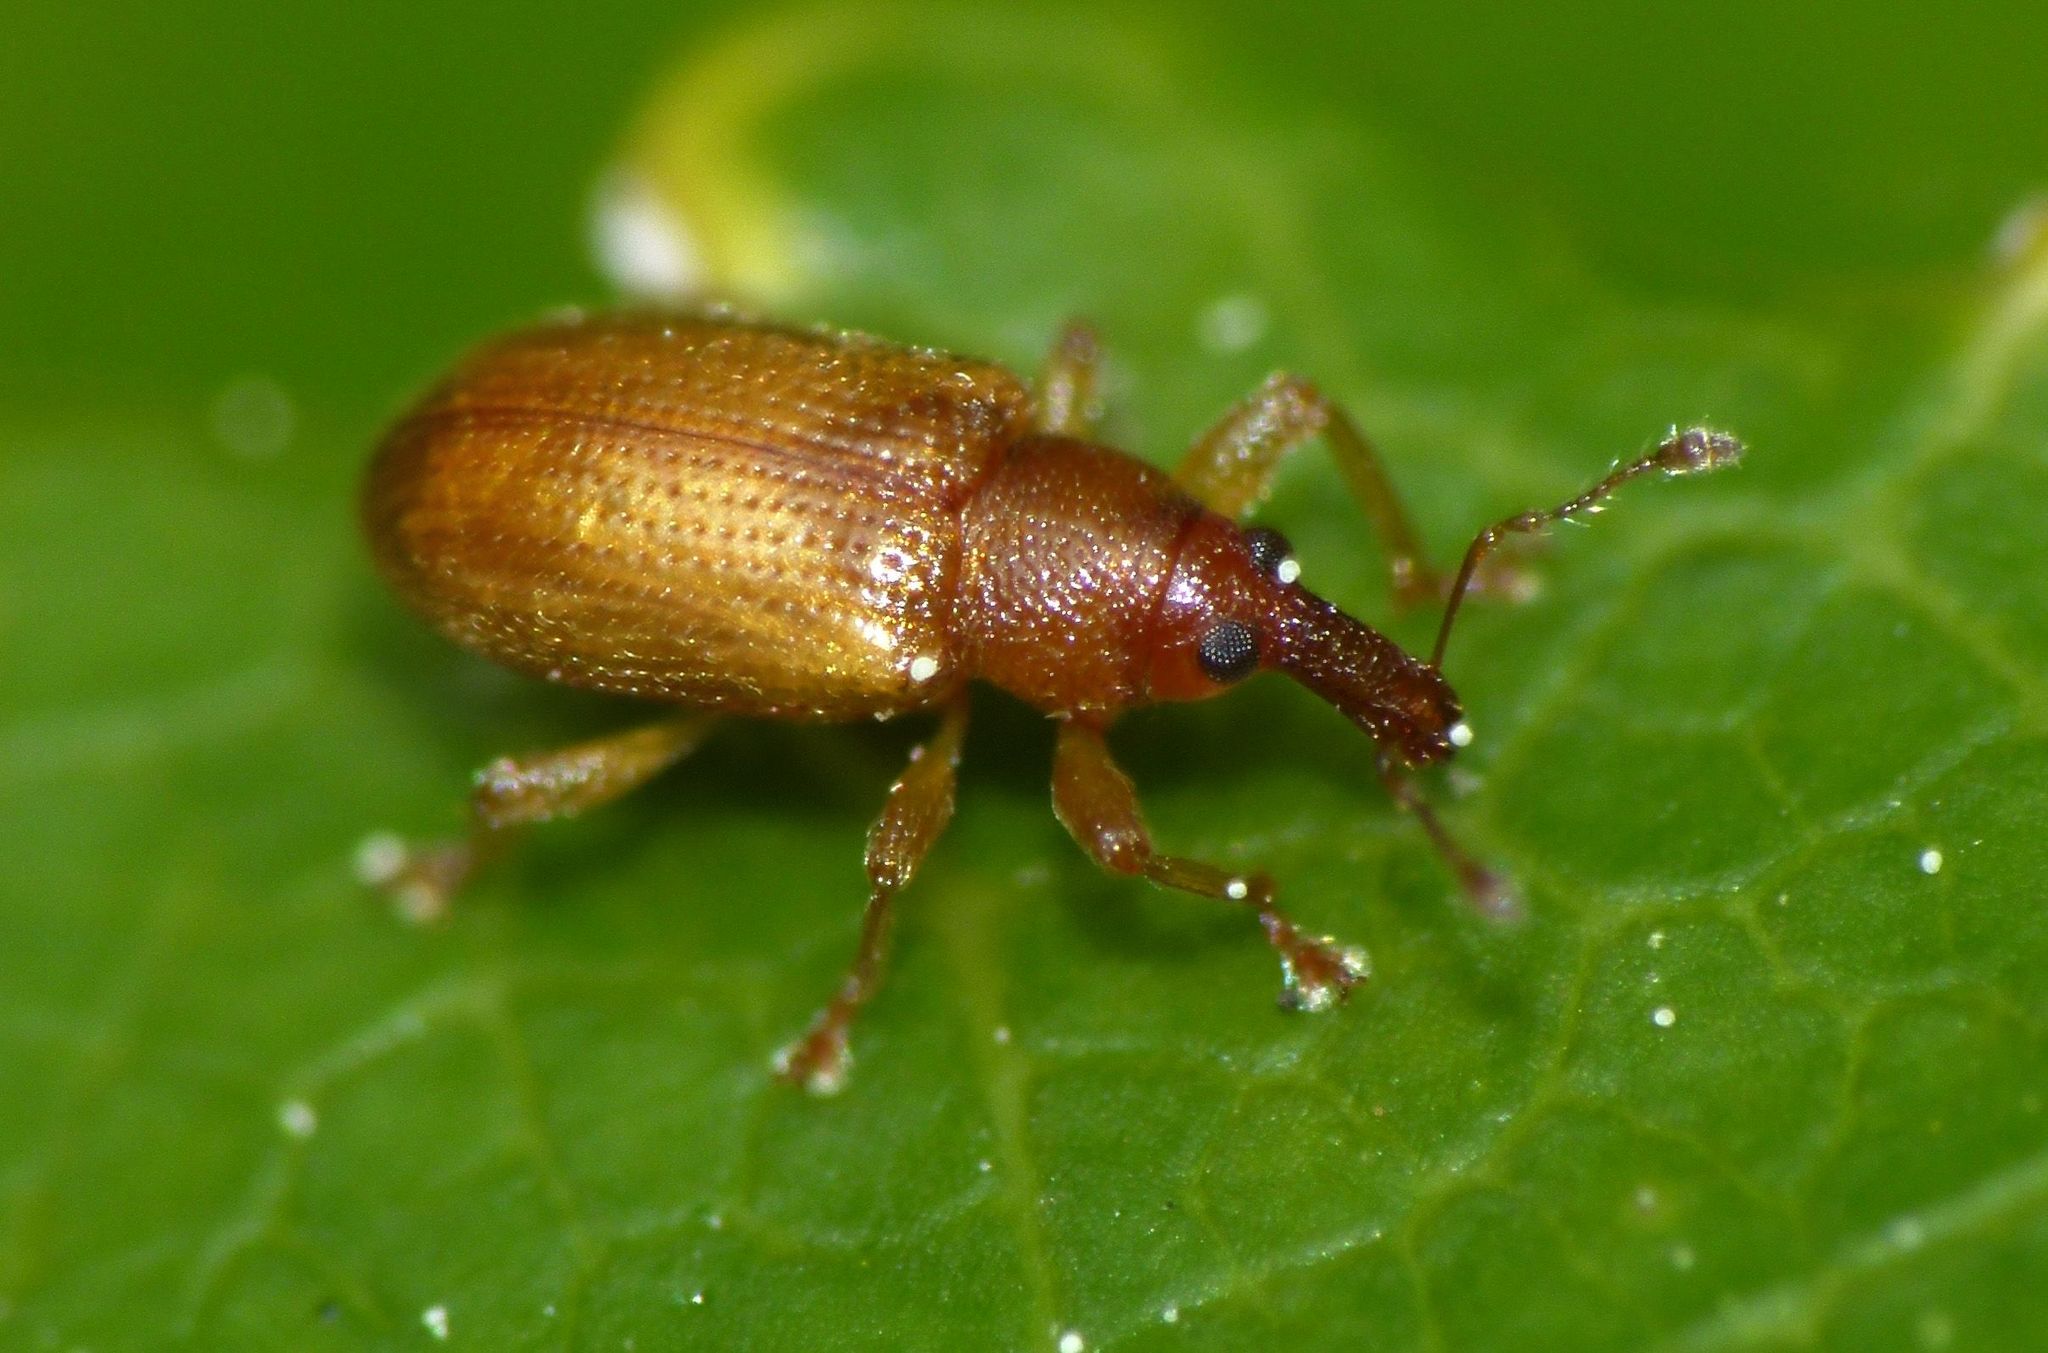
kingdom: Animalia
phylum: Arthropoda
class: Insecta
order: Coleoptera
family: Curculionidae
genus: Neomycta
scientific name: Neomycta pulicaris
